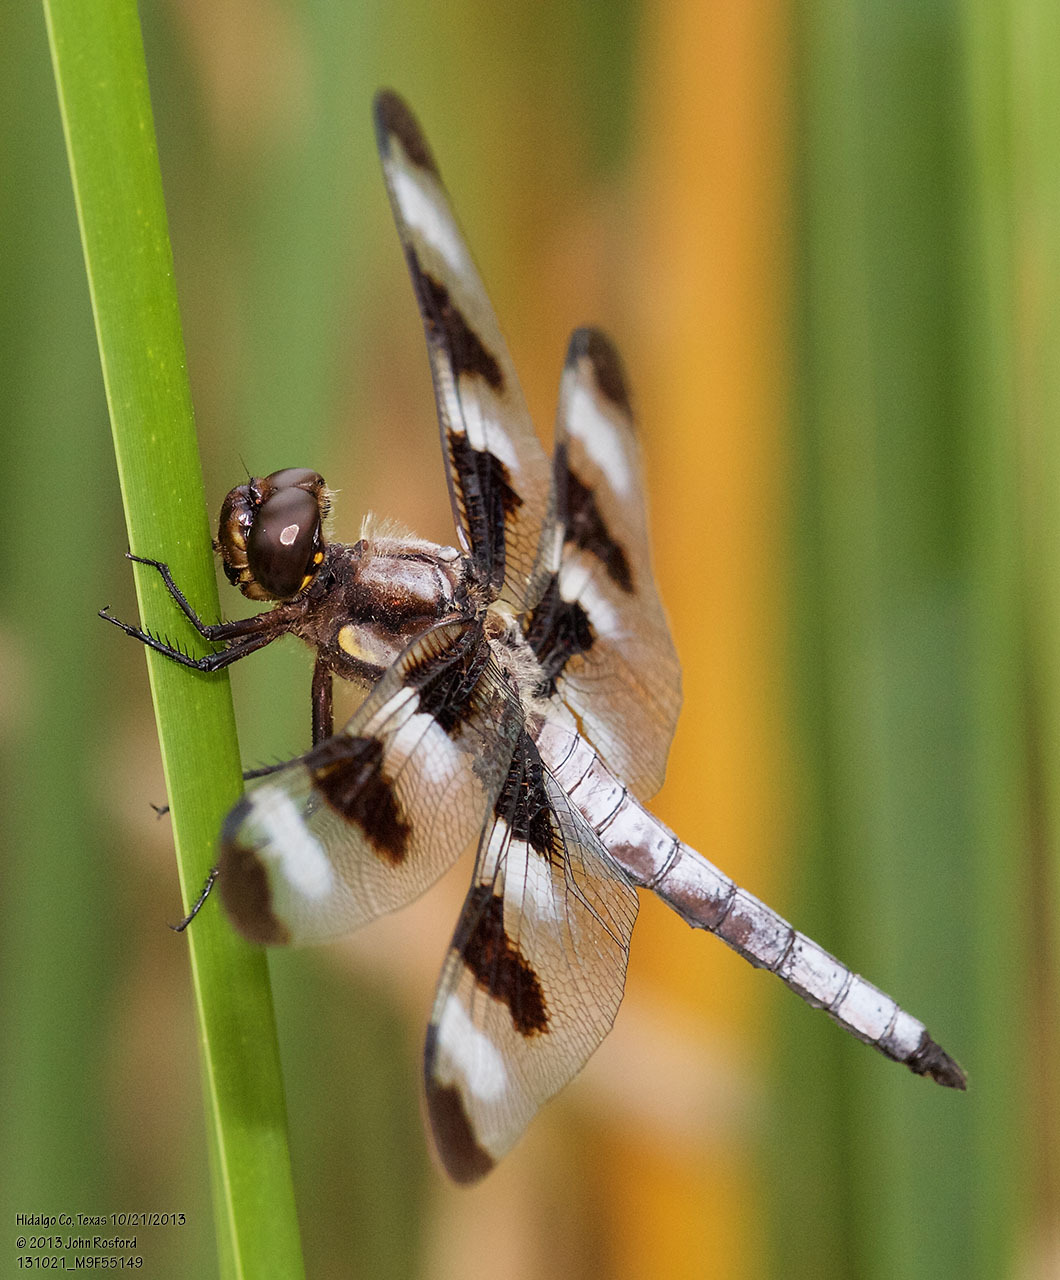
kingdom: Animalia
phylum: Arthropoda
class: Insecta
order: Odonata
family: Libellulidae
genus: Libellula
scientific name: Libellula pulchella
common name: Twelve-spotted skimmer
